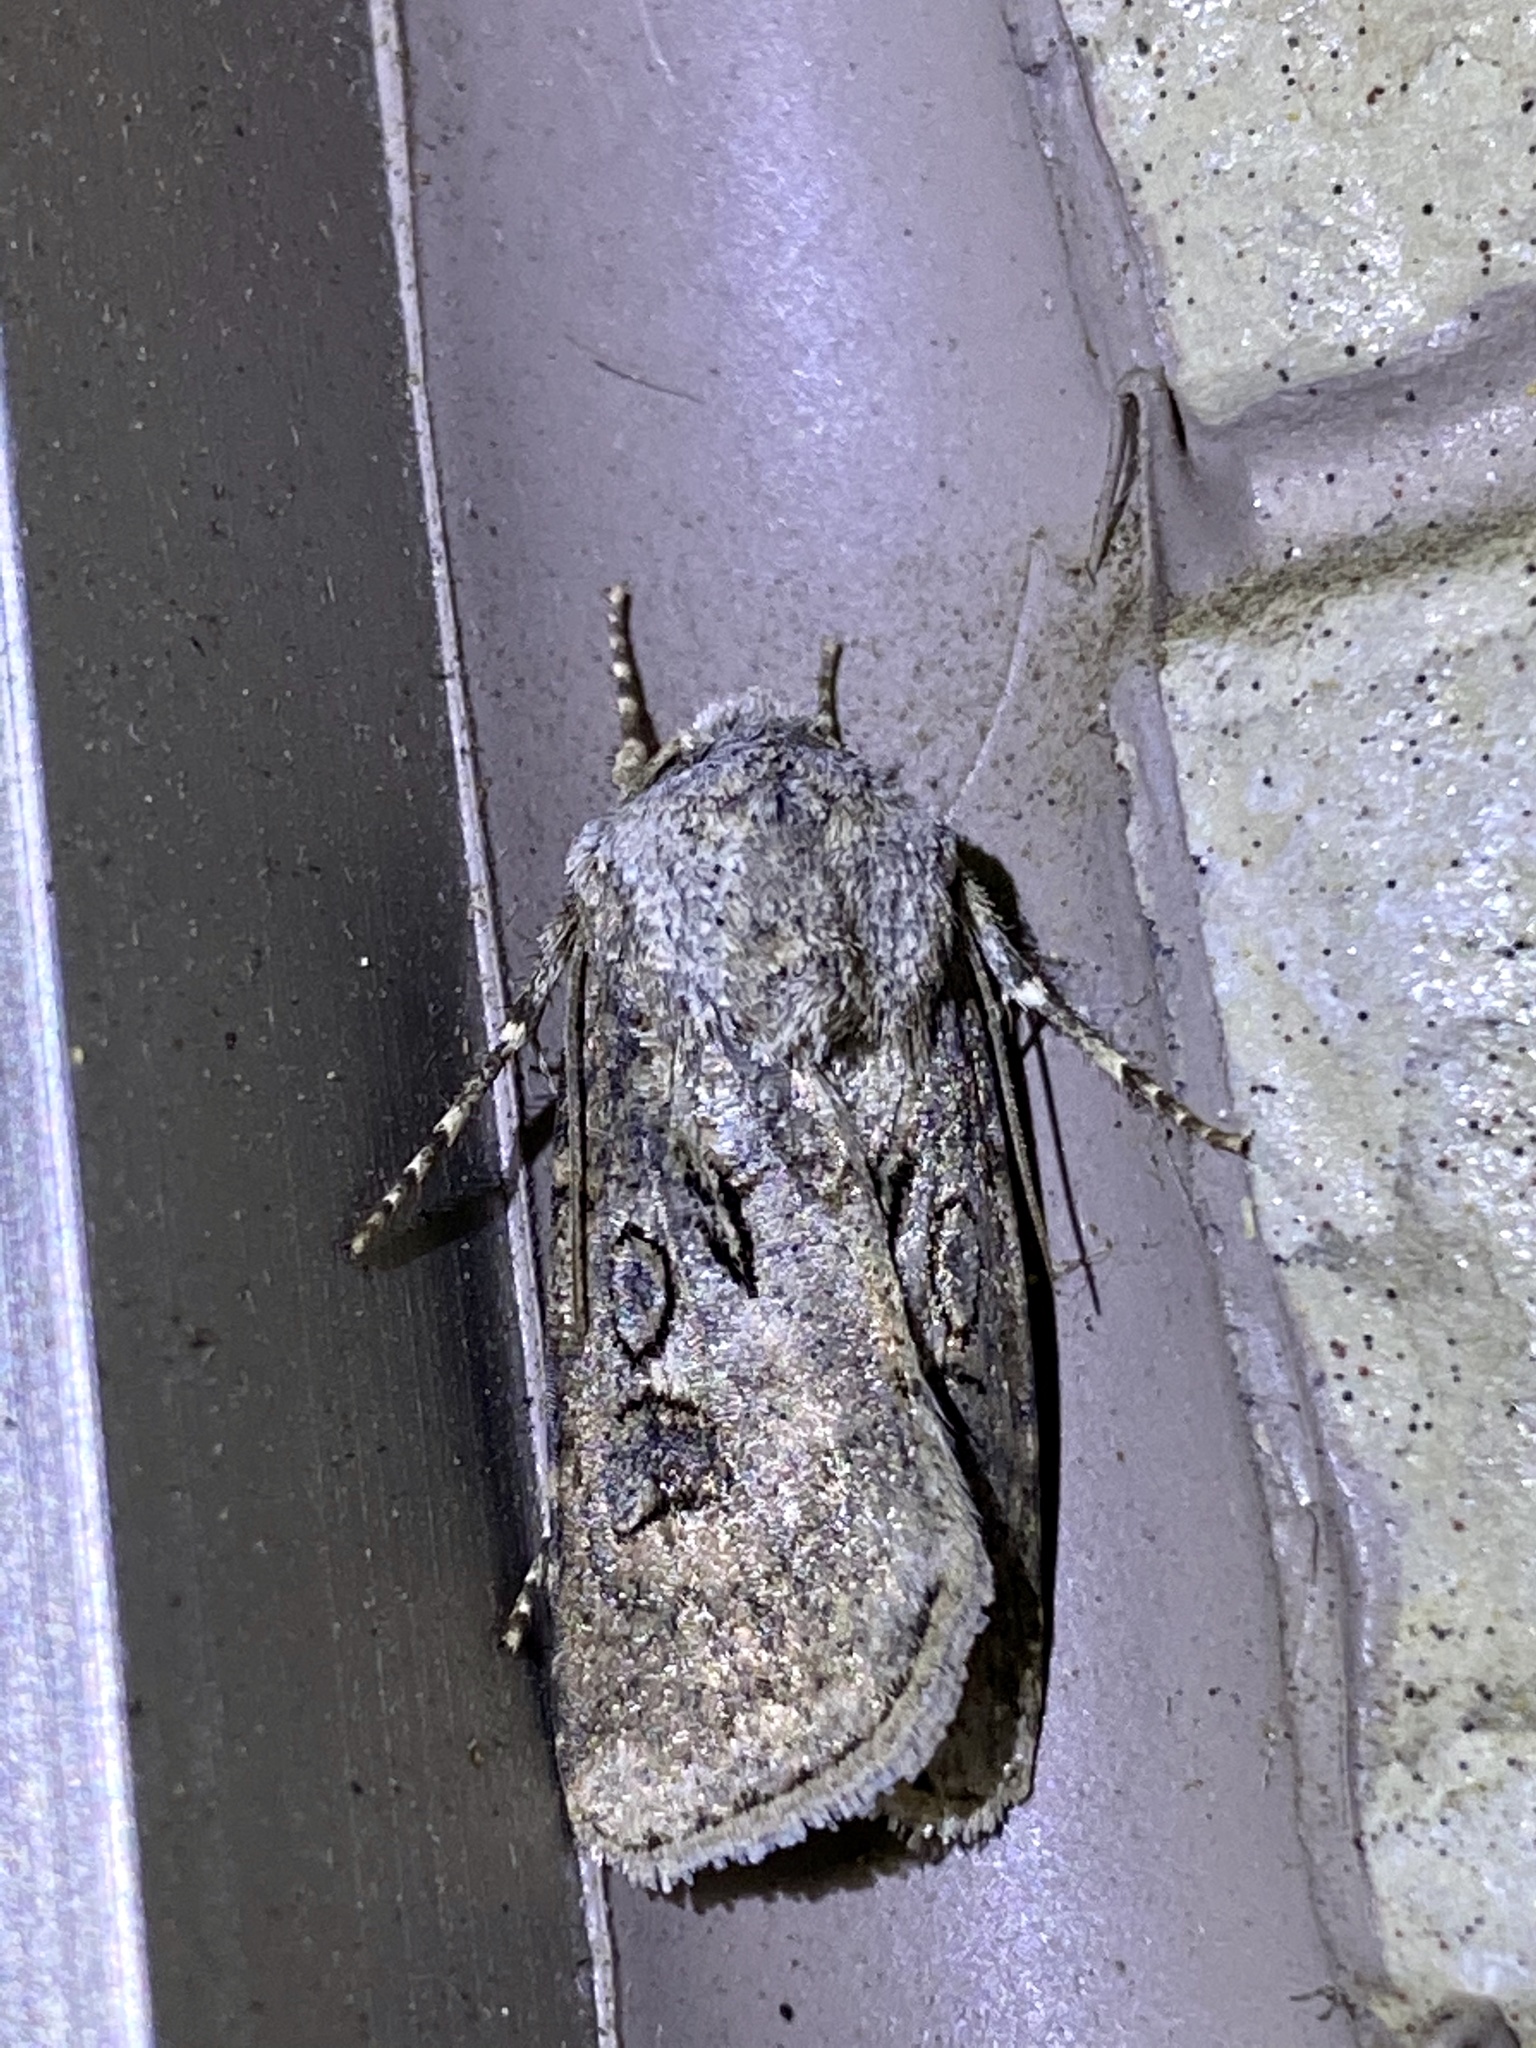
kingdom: Animalia
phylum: Arthropoda
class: Insecta
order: Lepidoptera
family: Noctuidae
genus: Agrotis
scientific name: Agrotis segetum
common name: Turnip moth
